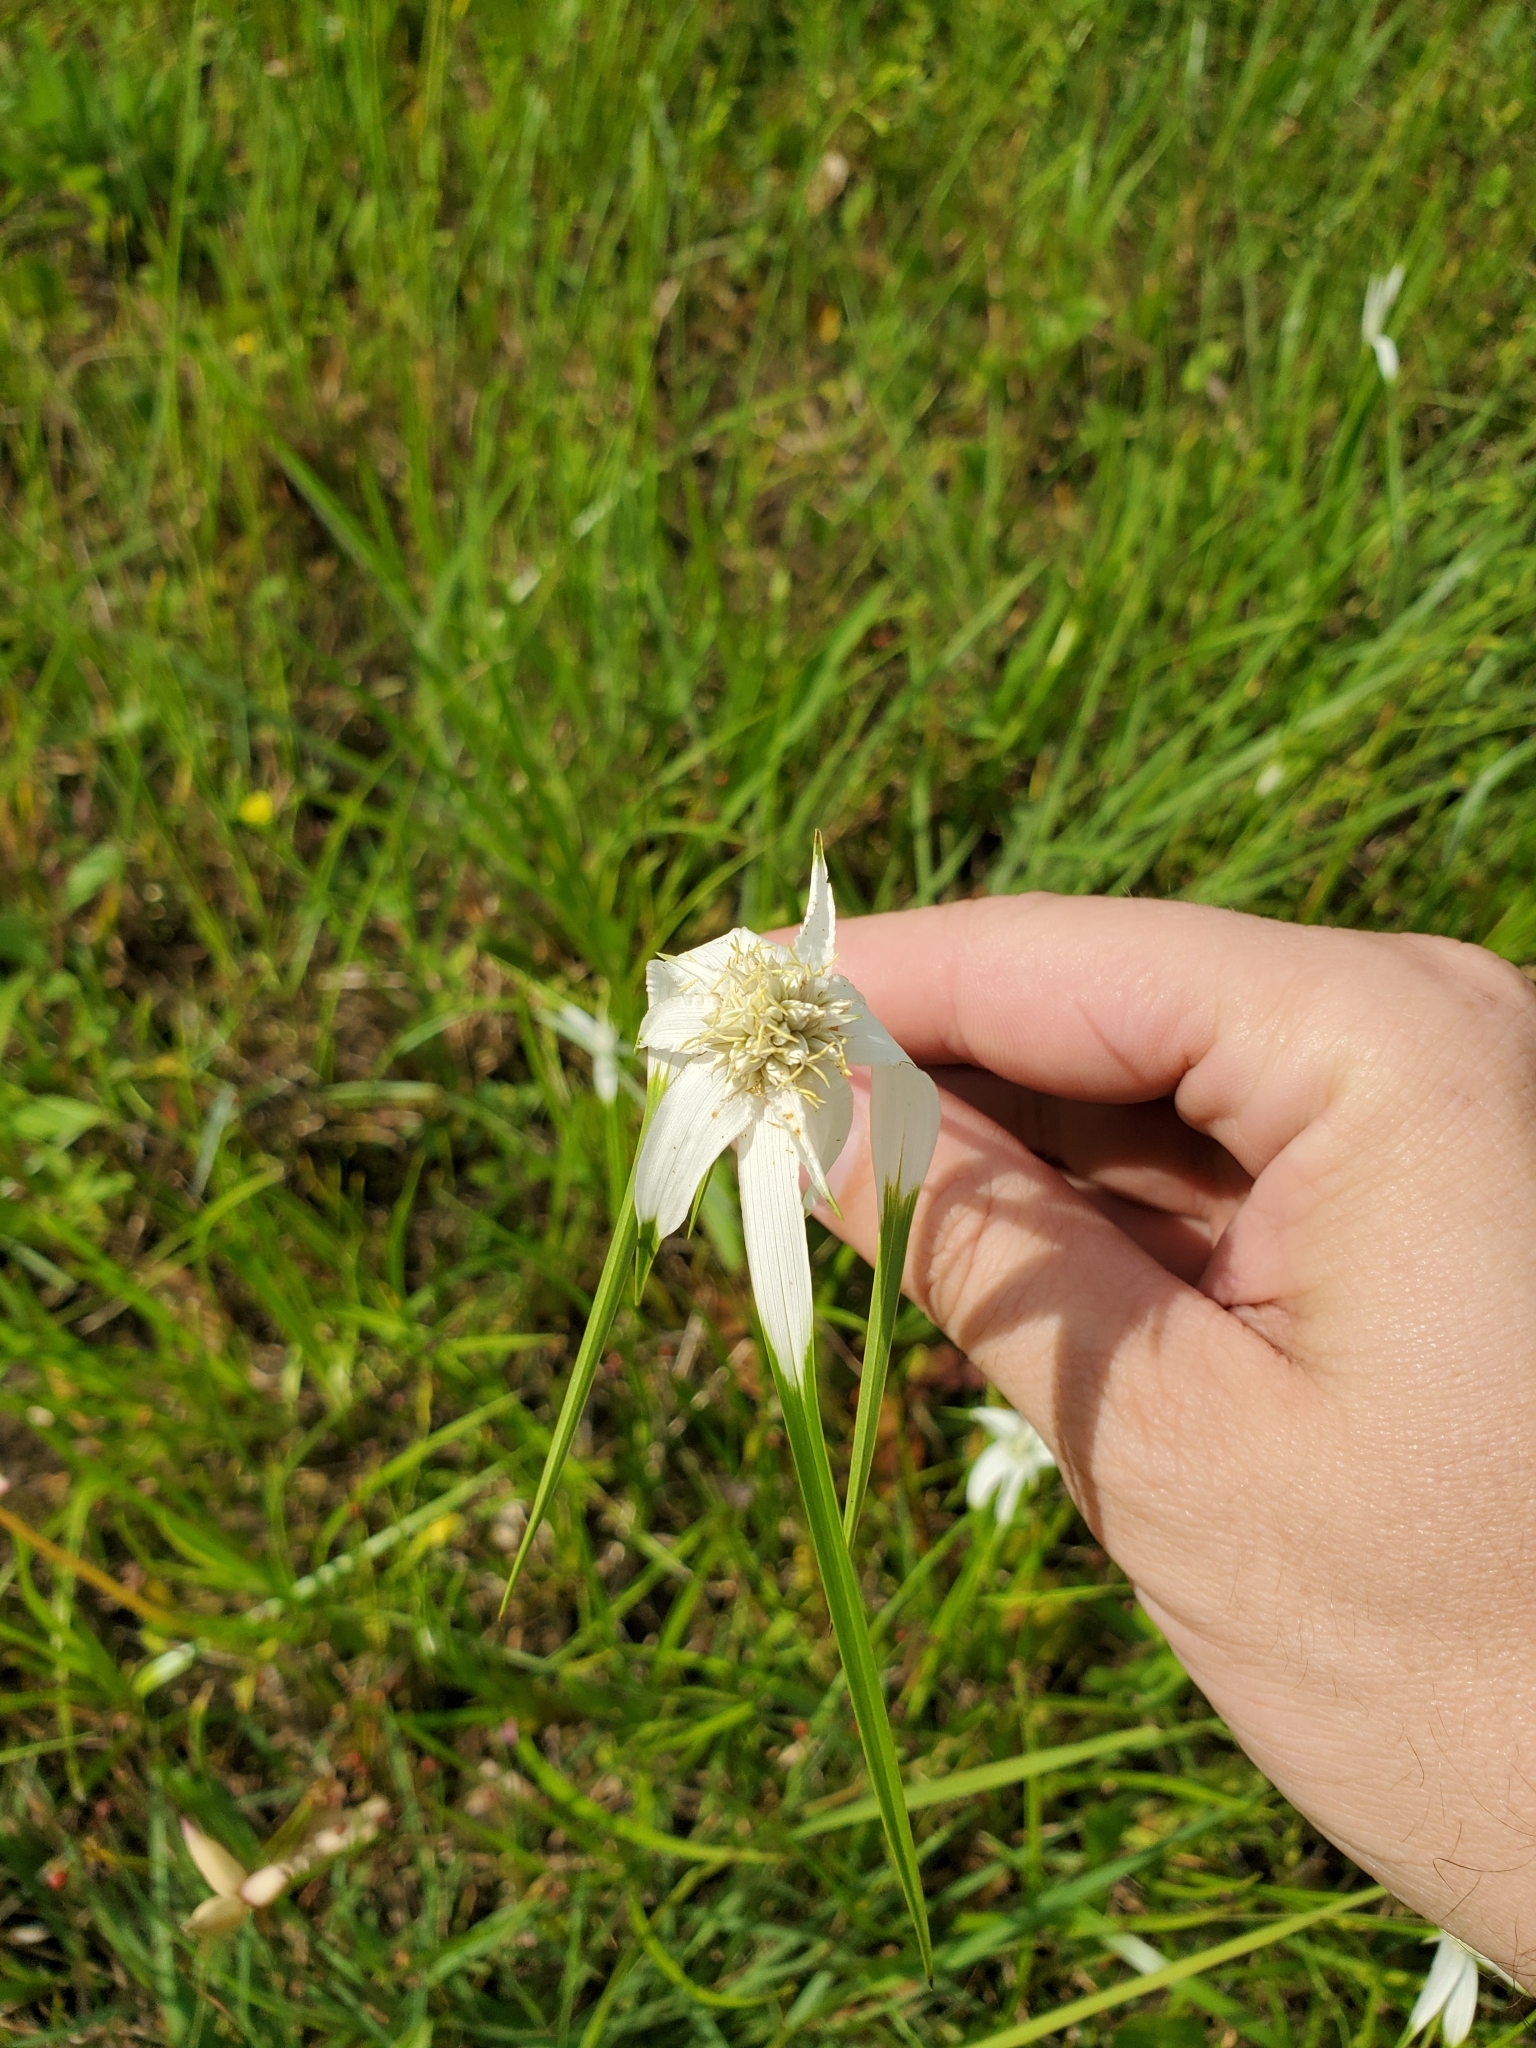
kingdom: Plantae
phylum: Tracheophyta
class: Liliopsida
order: Poales
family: Cyperaceae
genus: Rhynchospora
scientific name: Rhynchospora colorata
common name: Star sedge
